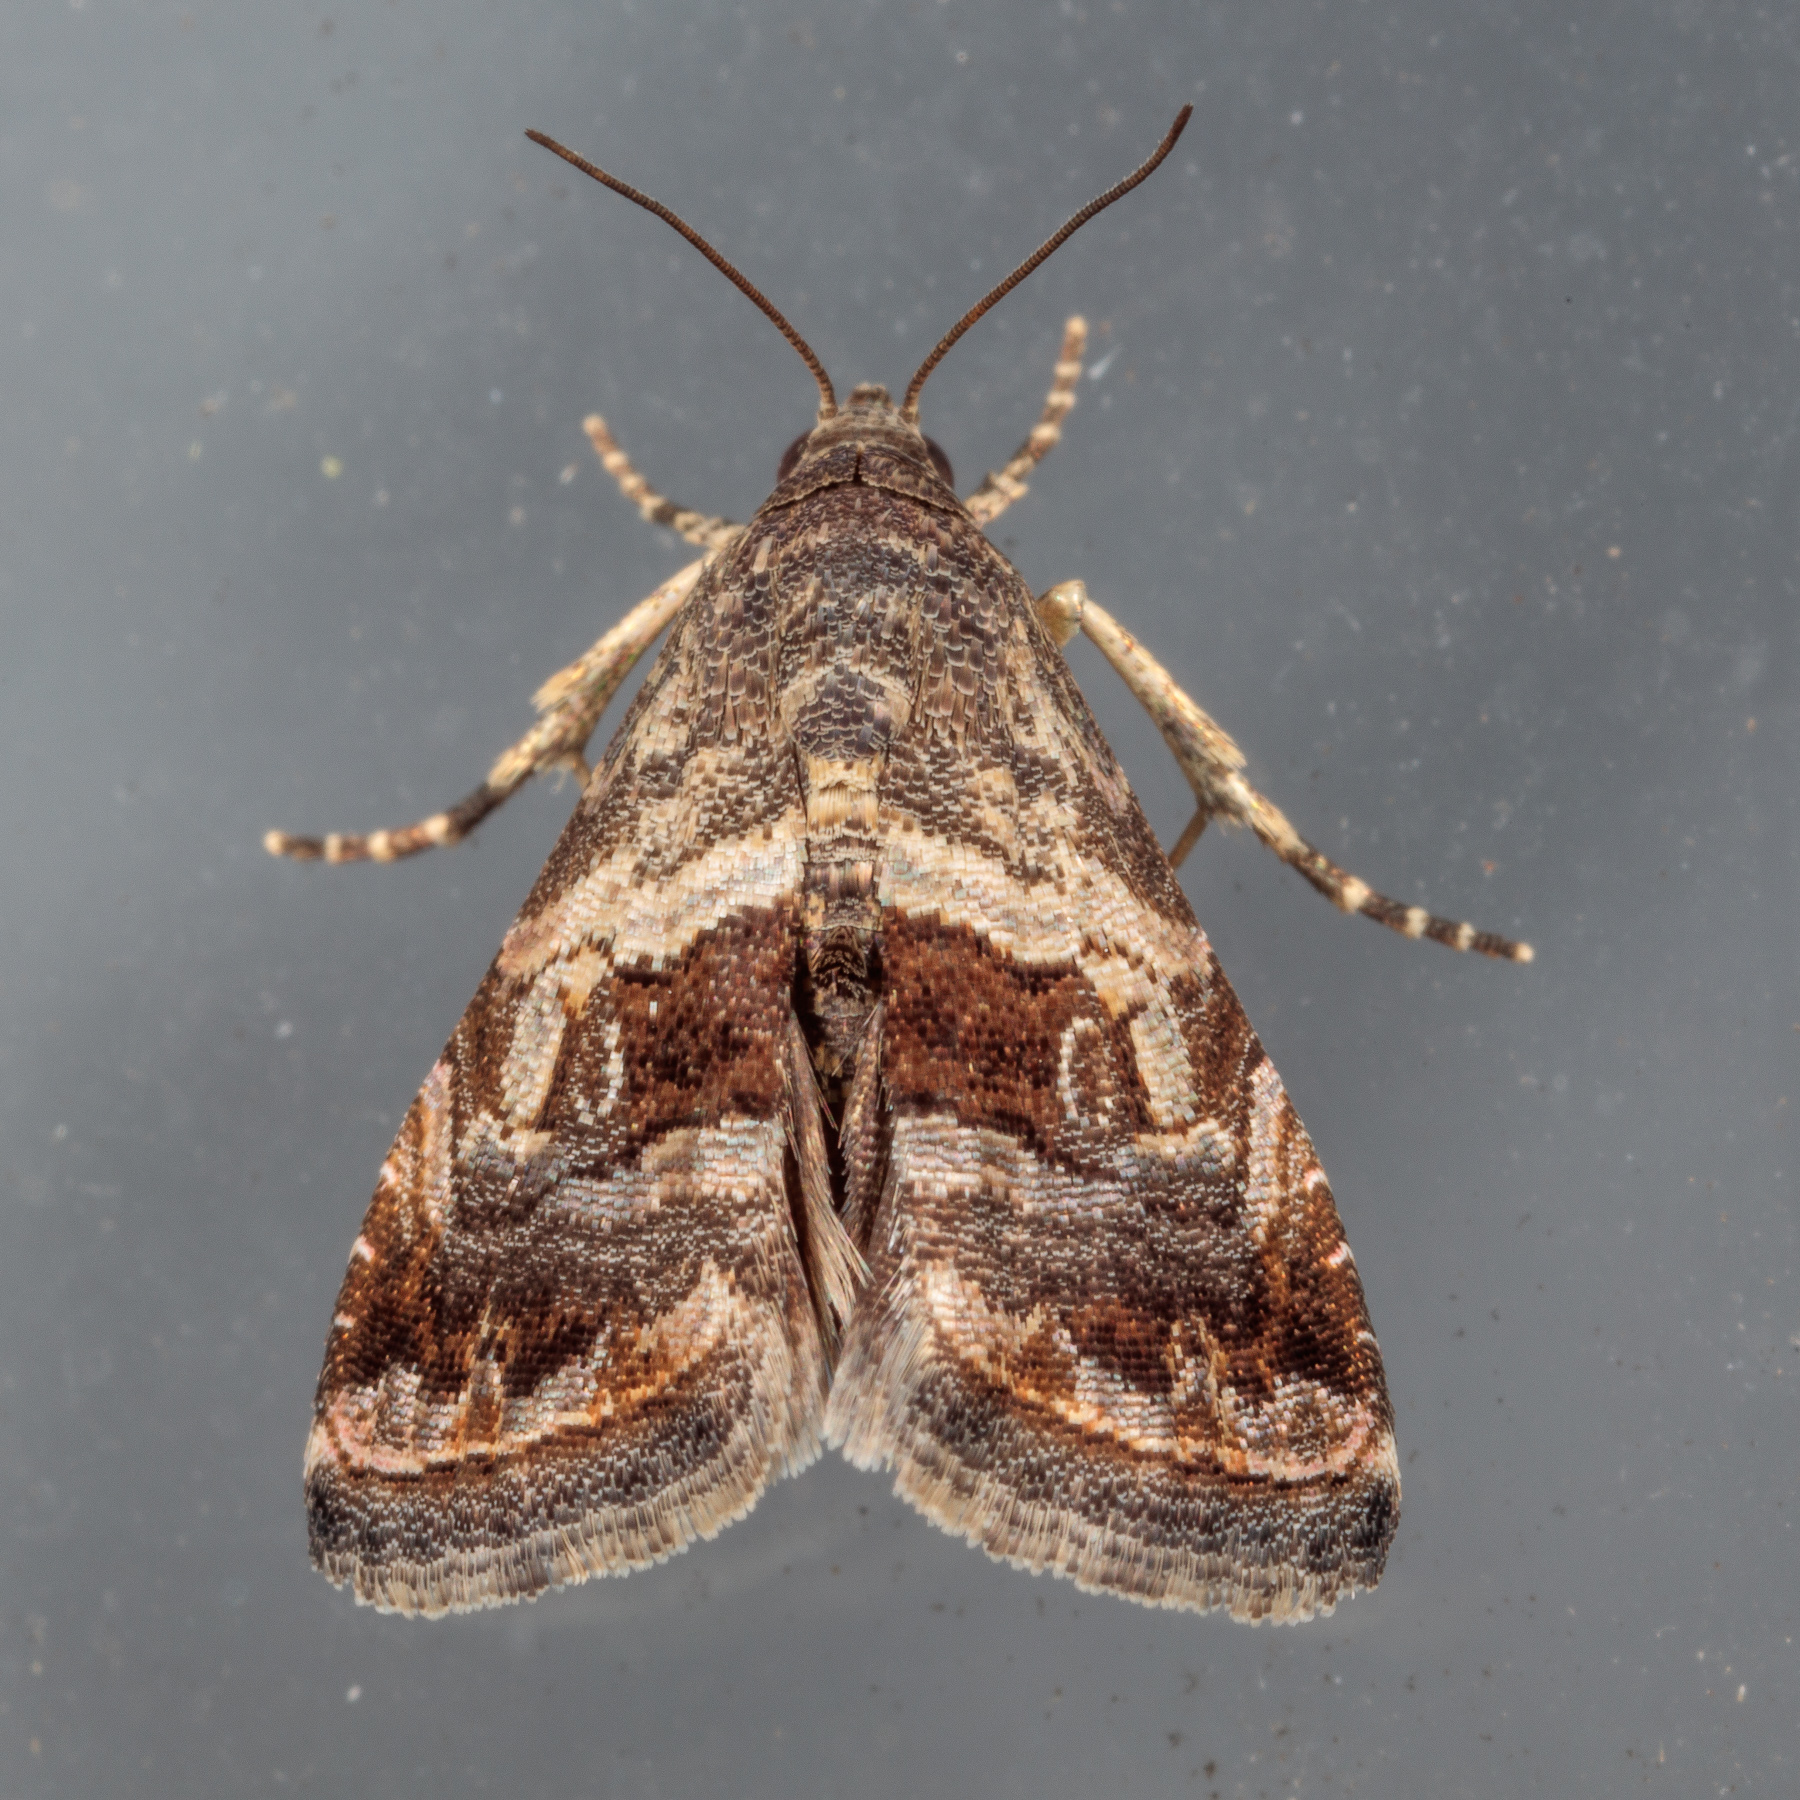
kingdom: Animalia
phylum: Arthropoda
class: Insecta
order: Lepidoptera
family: Noctuidae
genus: Tripudia
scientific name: Tripudia quadrifera
